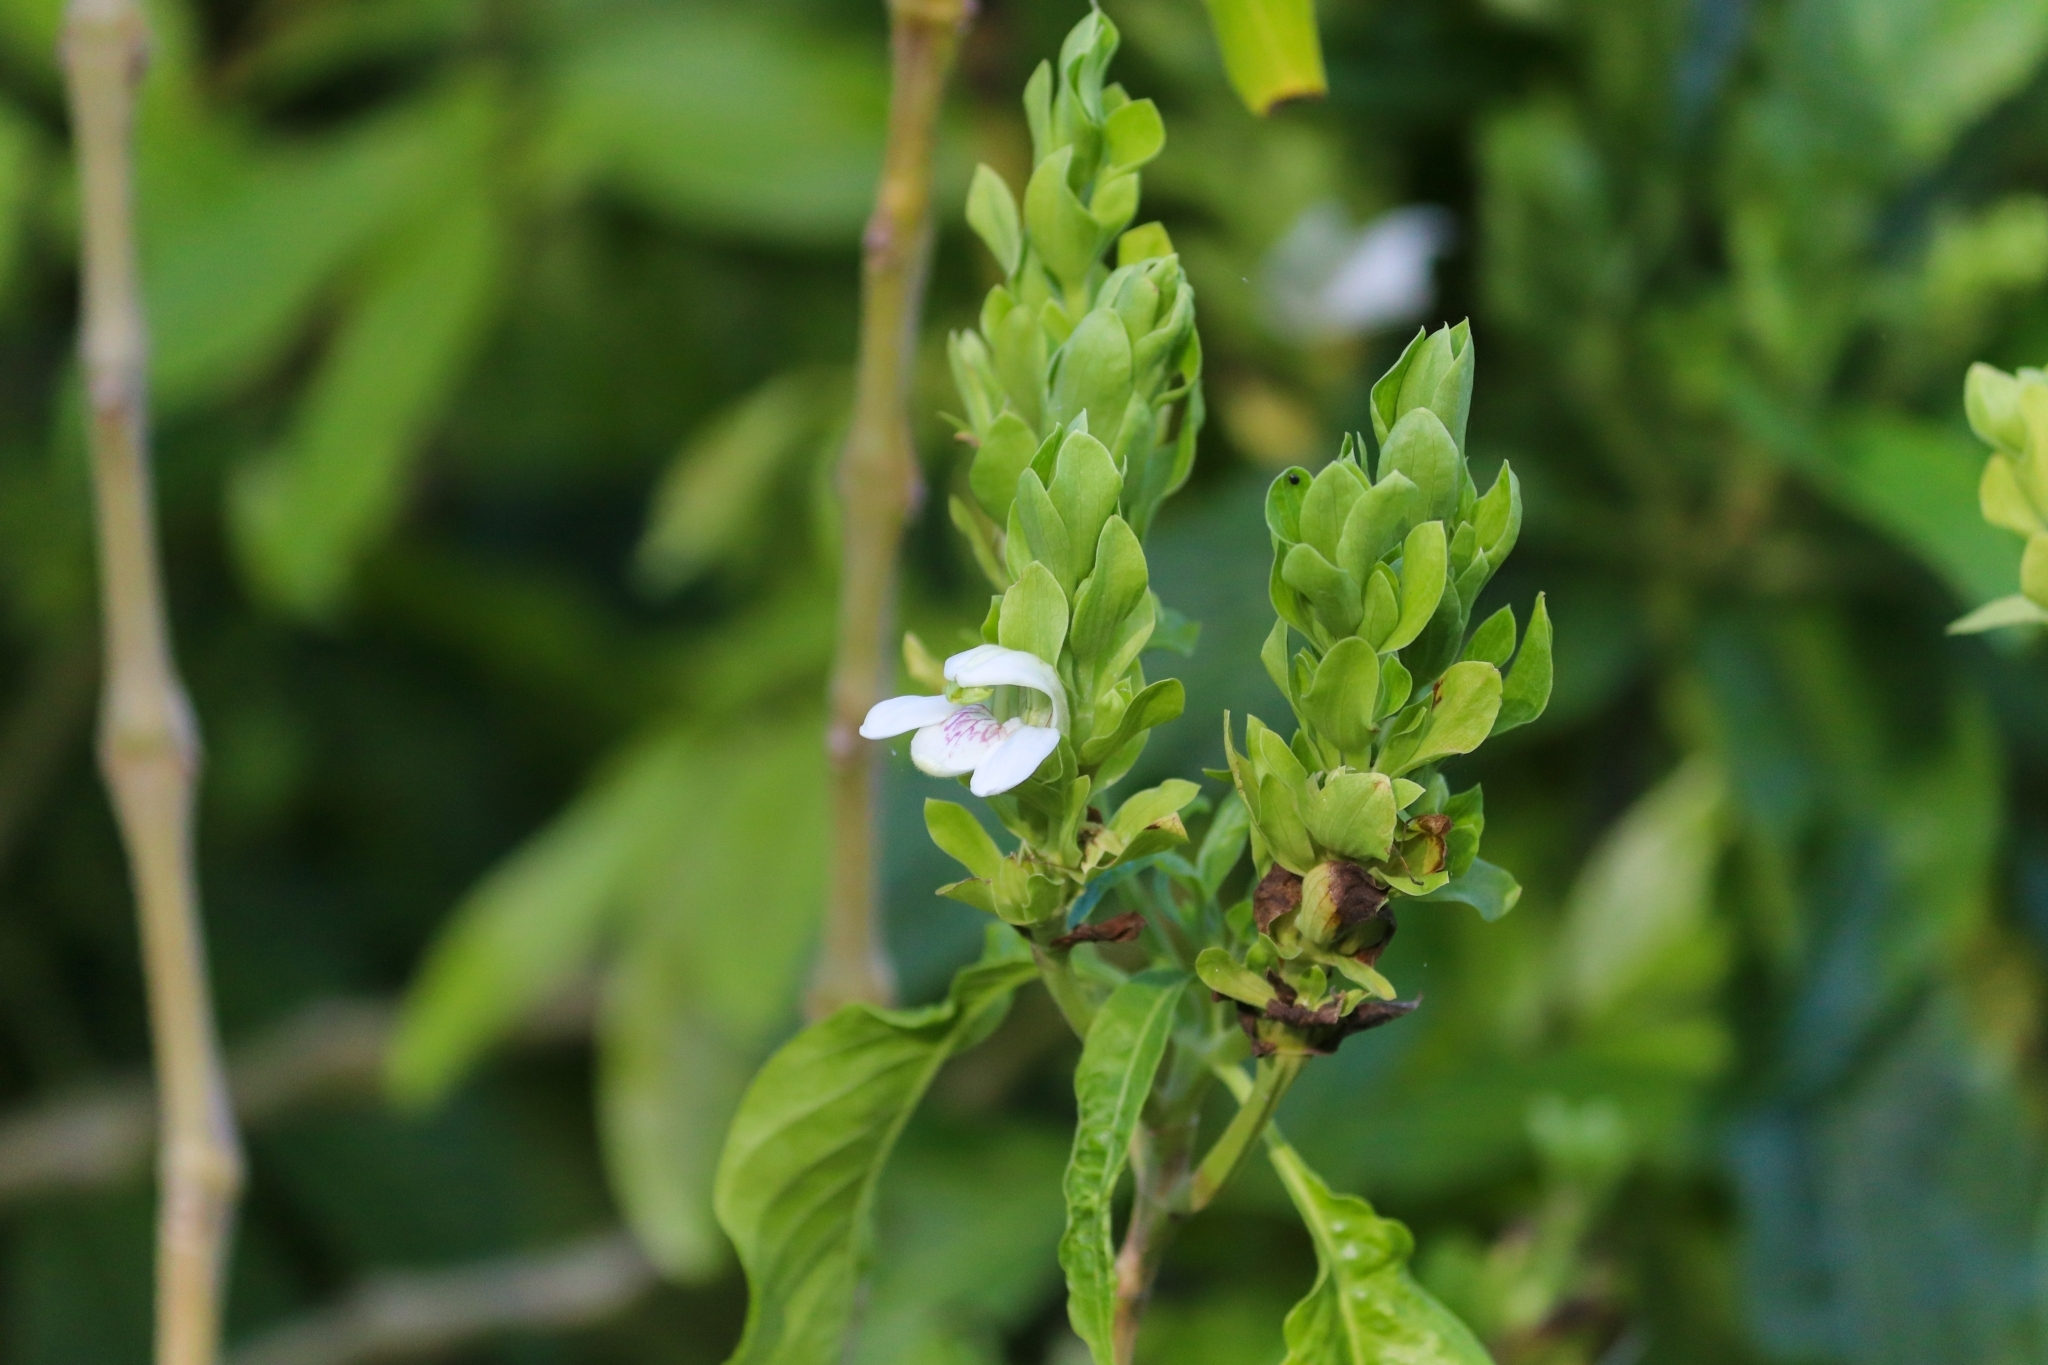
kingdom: Plantae
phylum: Tracheophyta
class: Magnoliopsida
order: Lamiales
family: Acanthaceae
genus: Justicia
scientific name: Justicia adhatoda
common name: Malabar nut
